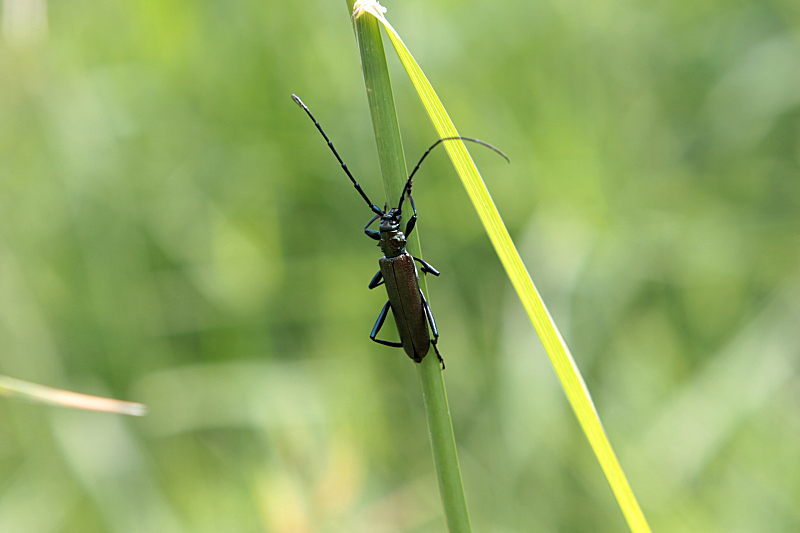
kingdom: Animalia
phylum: Arthropoda
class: Insecta
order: Coleoptera
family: Cerambycidae
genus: Aromia
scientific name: Aromia moschata
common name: Musk beetle
